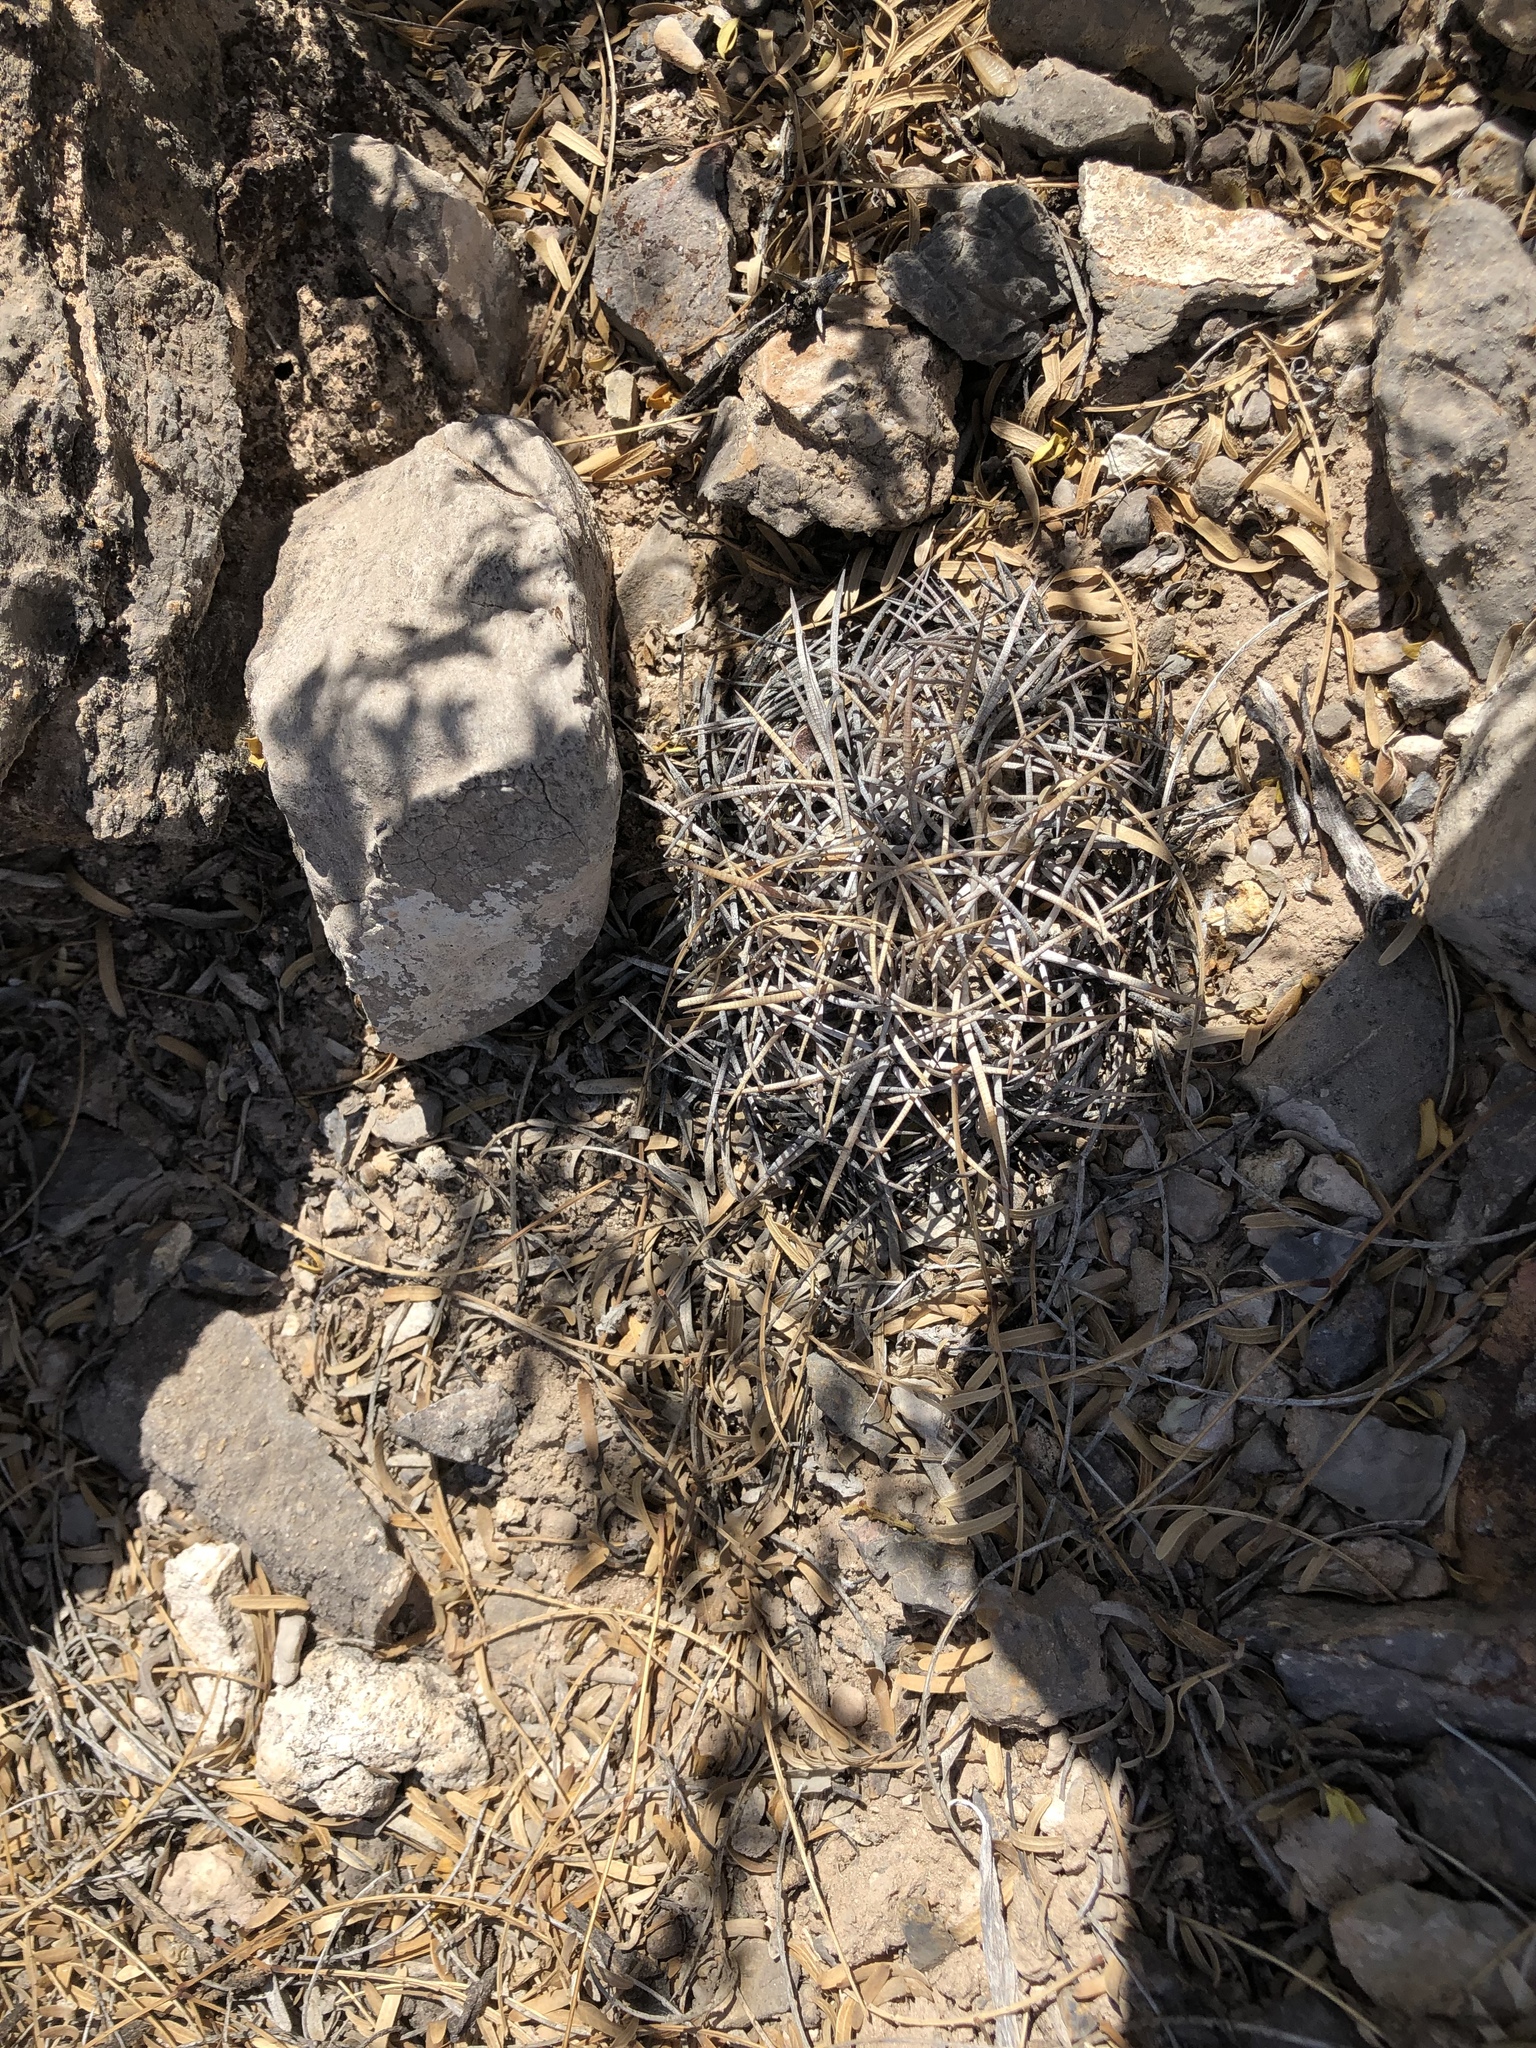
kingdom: Plantae
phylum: Tracheophyta
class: Magnoliopsida
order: Caryophyllales
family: Cactaceae
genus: Echinocactus
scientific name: Echinocactus horizonthalonius
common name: Devilshead
